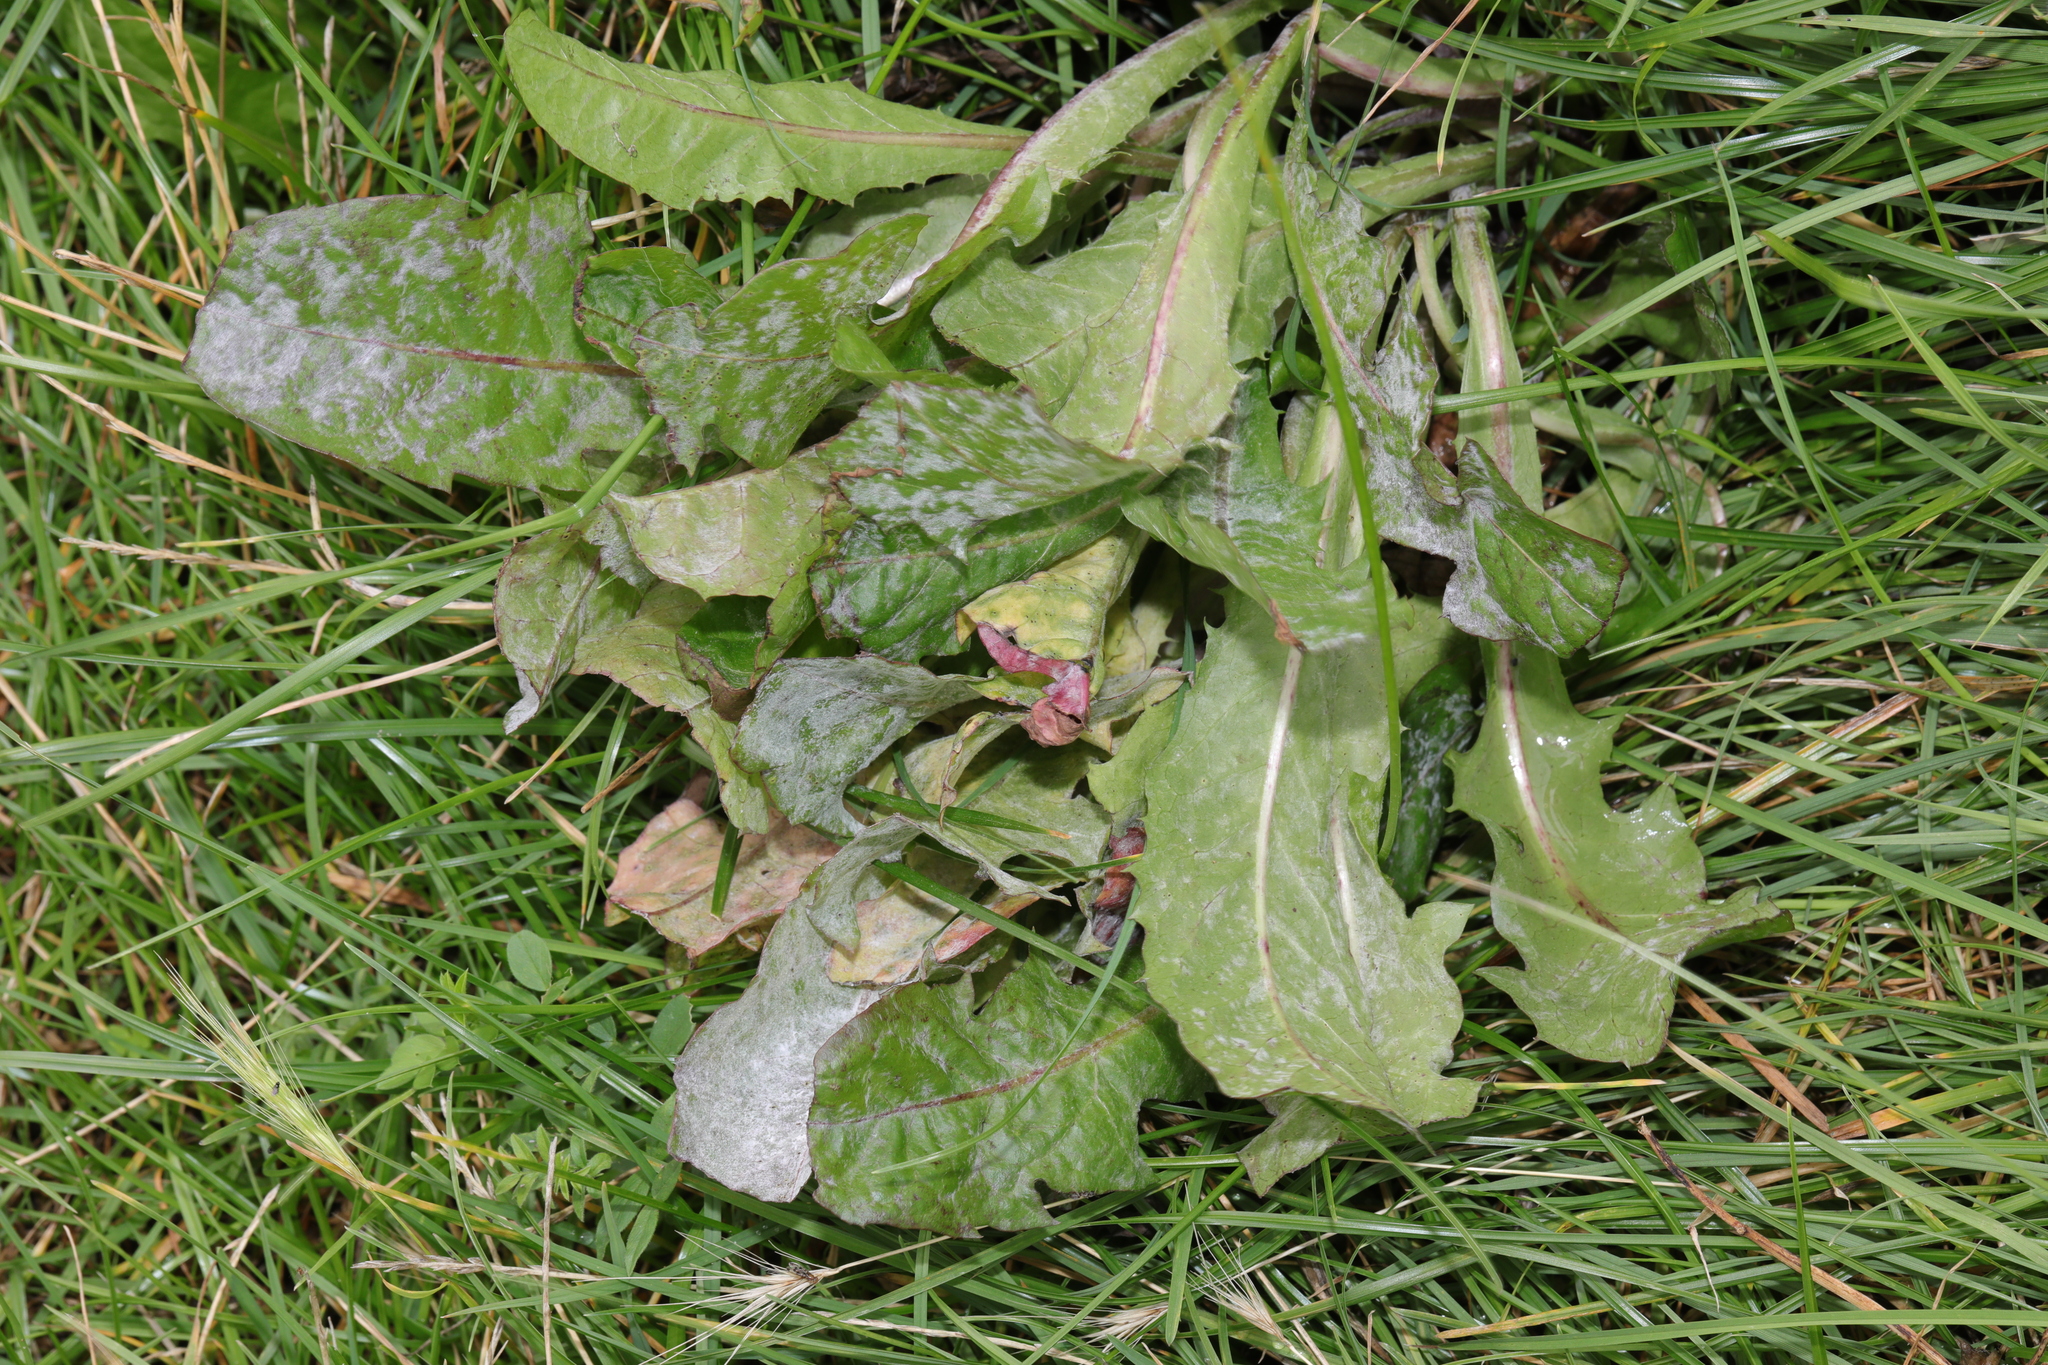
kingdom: Plantae
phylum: Tracheophyta
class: Magnoliopsida
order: Asterales
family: Asteraceae
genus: Taraxacum
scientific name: Taraxacum officinale
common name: Common dandelion
